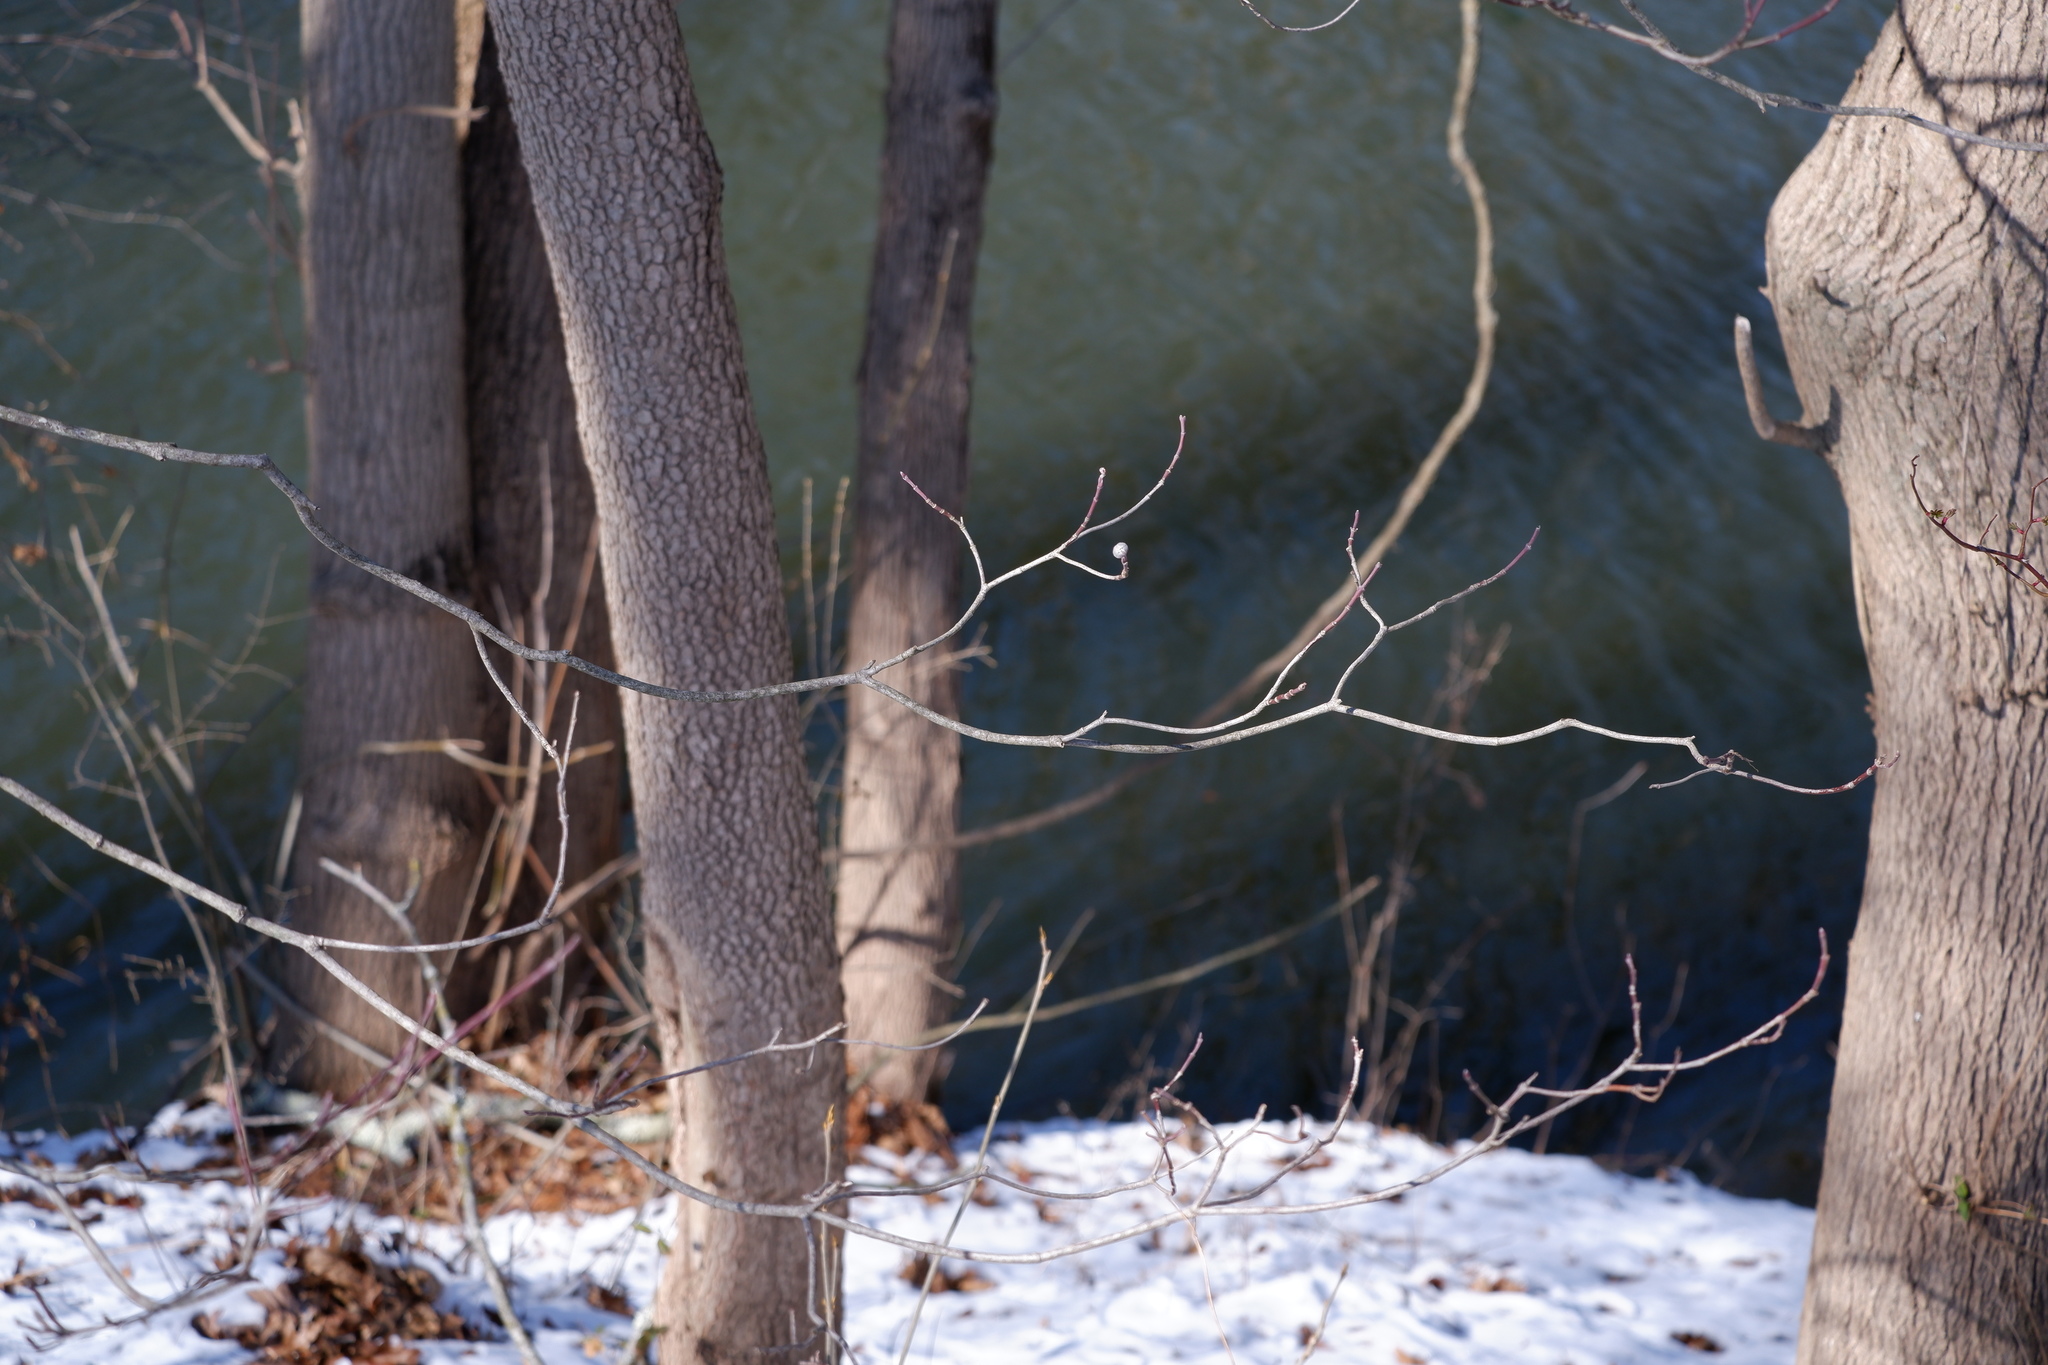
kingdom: Plantae
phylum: Tracheophyta
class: Magnoliopsida
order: Cornales
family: Cornaceae
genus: Cornus
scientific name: Cornus florida
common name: Flowering dogwood
